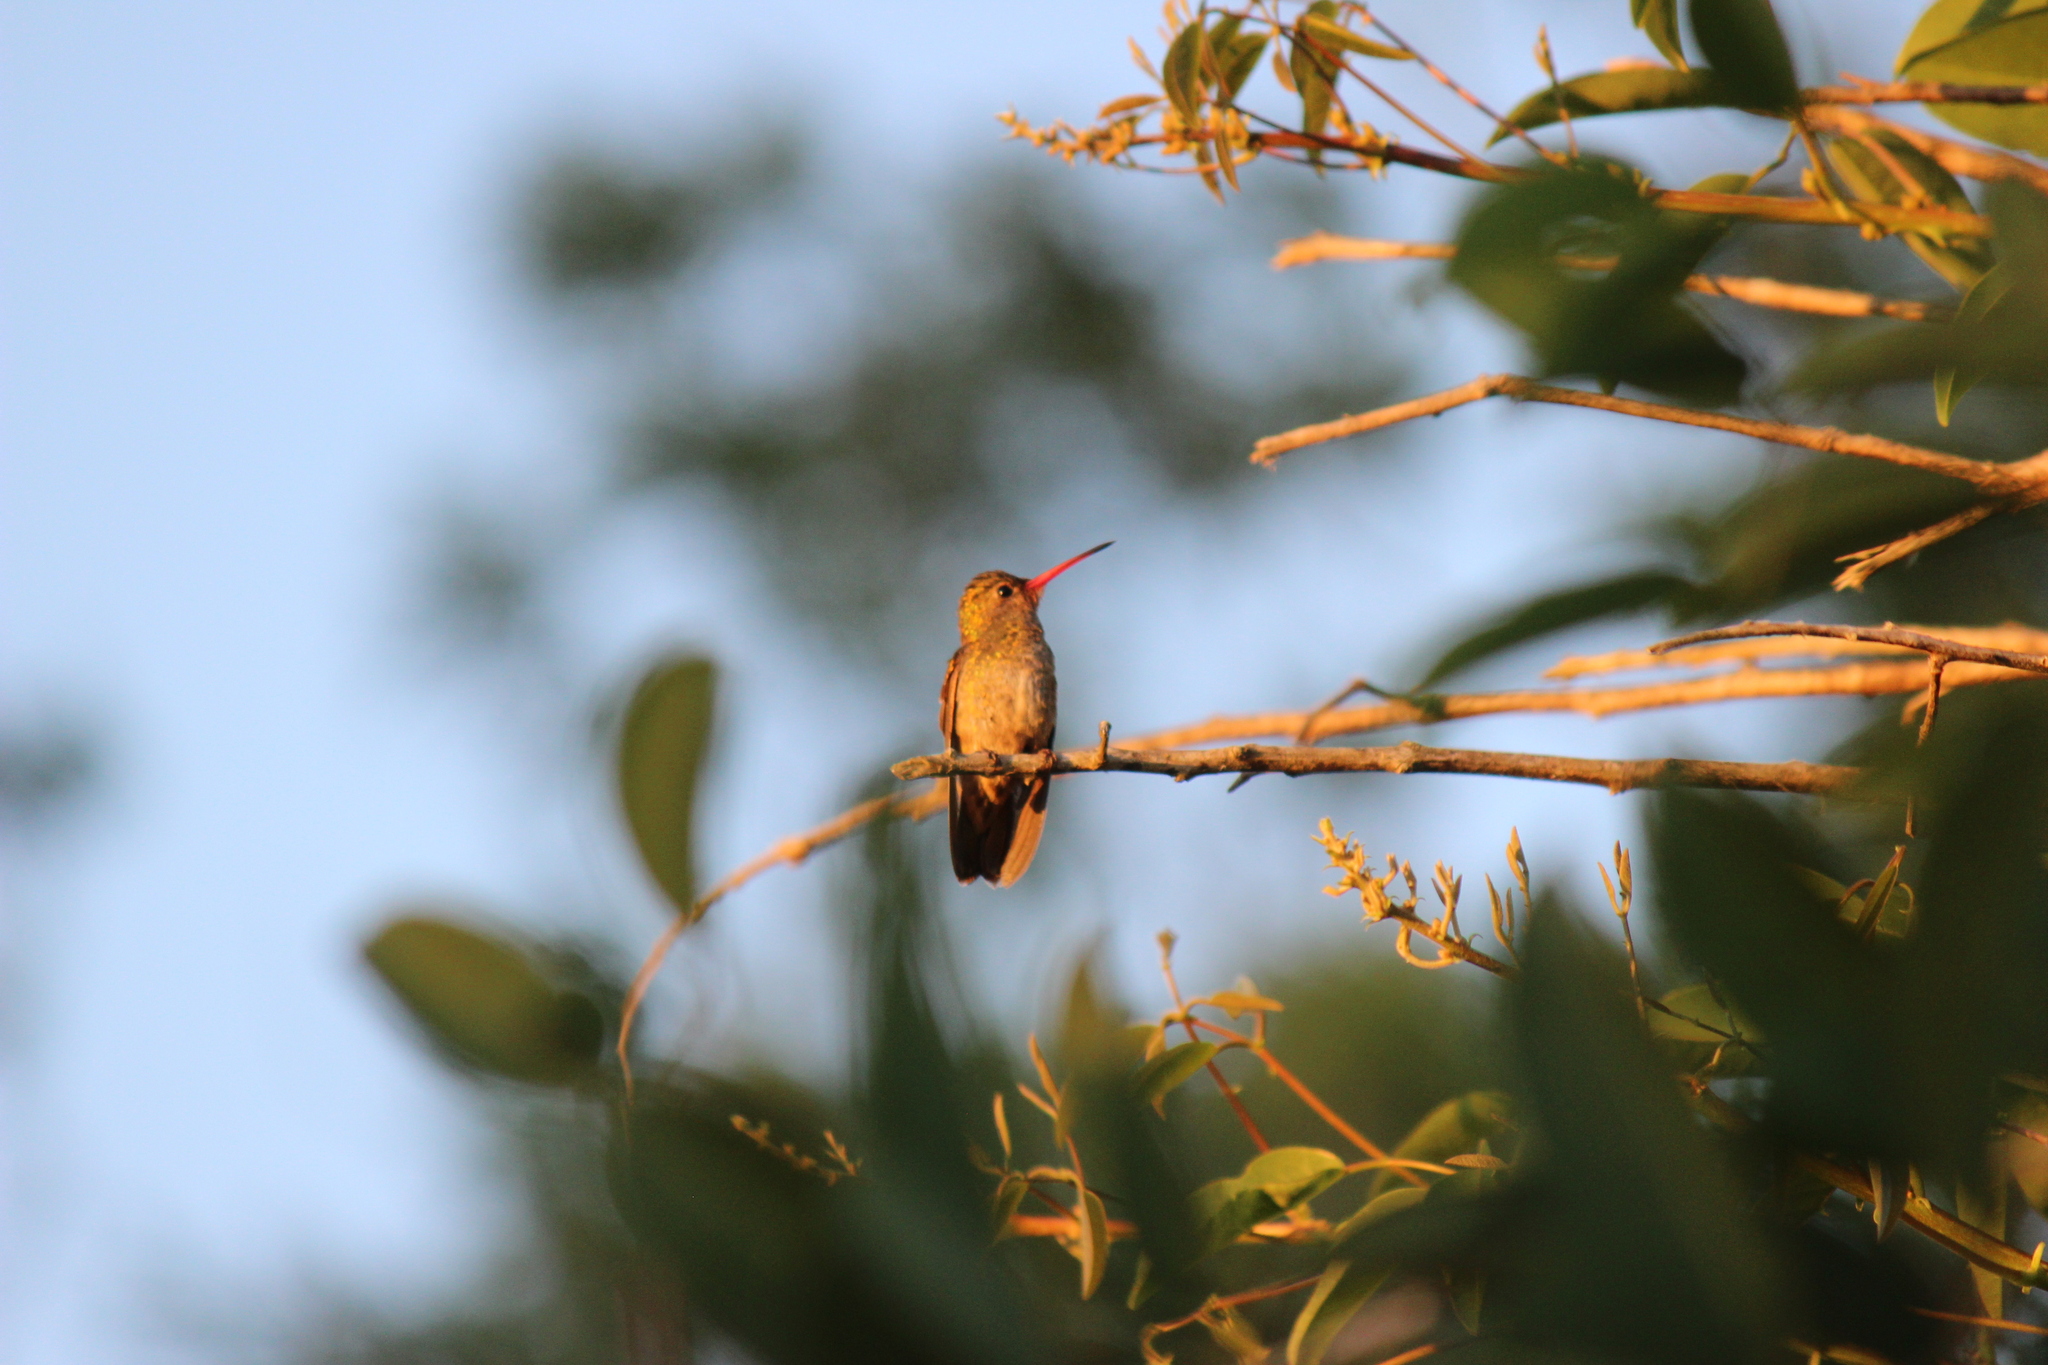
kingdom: Animalia
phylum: Chordata
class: Aves
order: Apodiformes
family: Trochilidae
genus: Hylocharis
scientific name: Hylocharis chrysura
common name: Gilded sapphire
